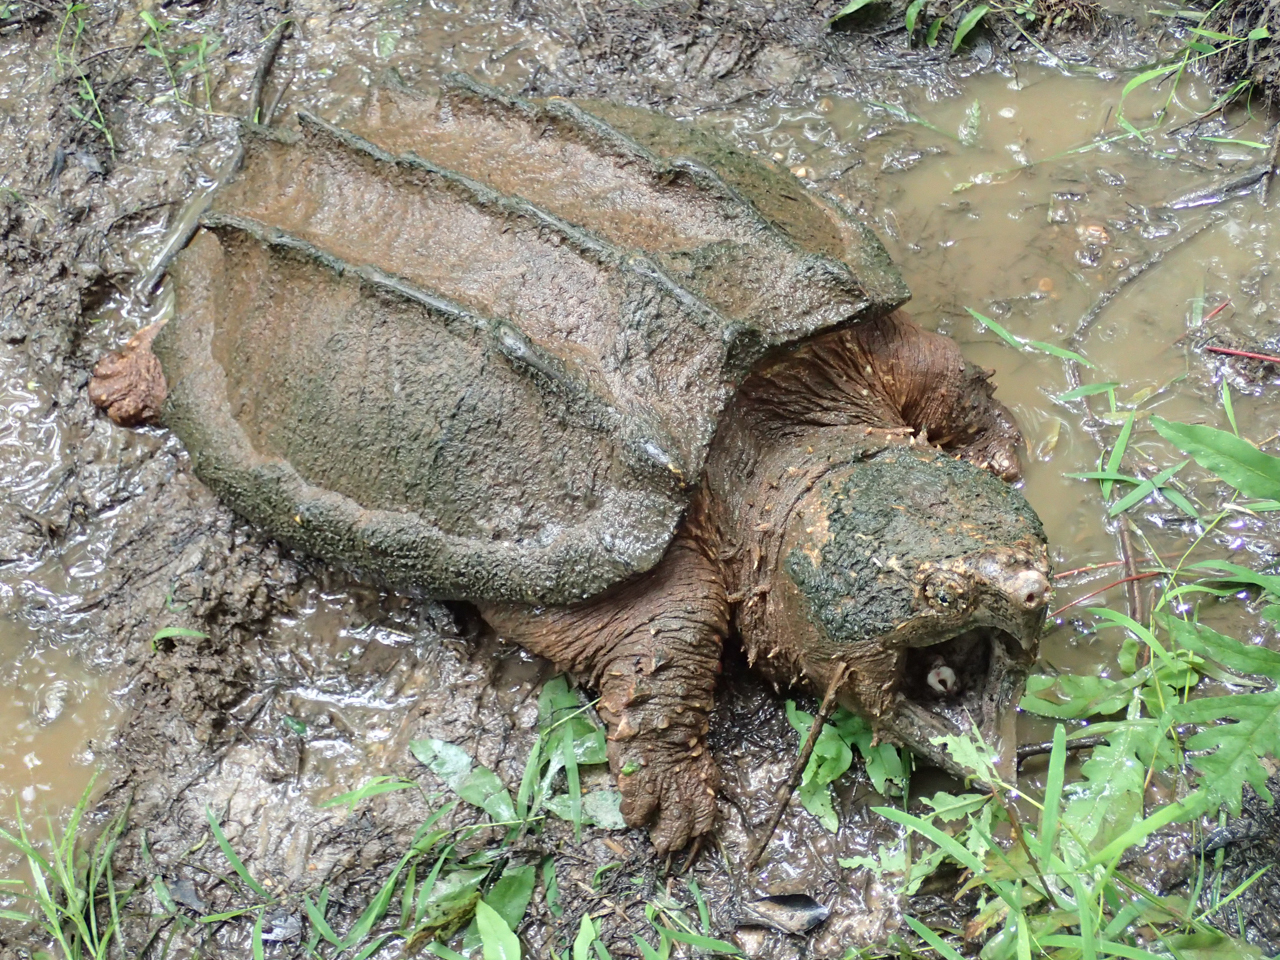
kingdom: Animalia
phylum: Chordata
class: Testudines
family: Chelydridae
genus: Macrochelys
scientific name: Macrochelys temminckii
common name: Alligator snapping turtle
